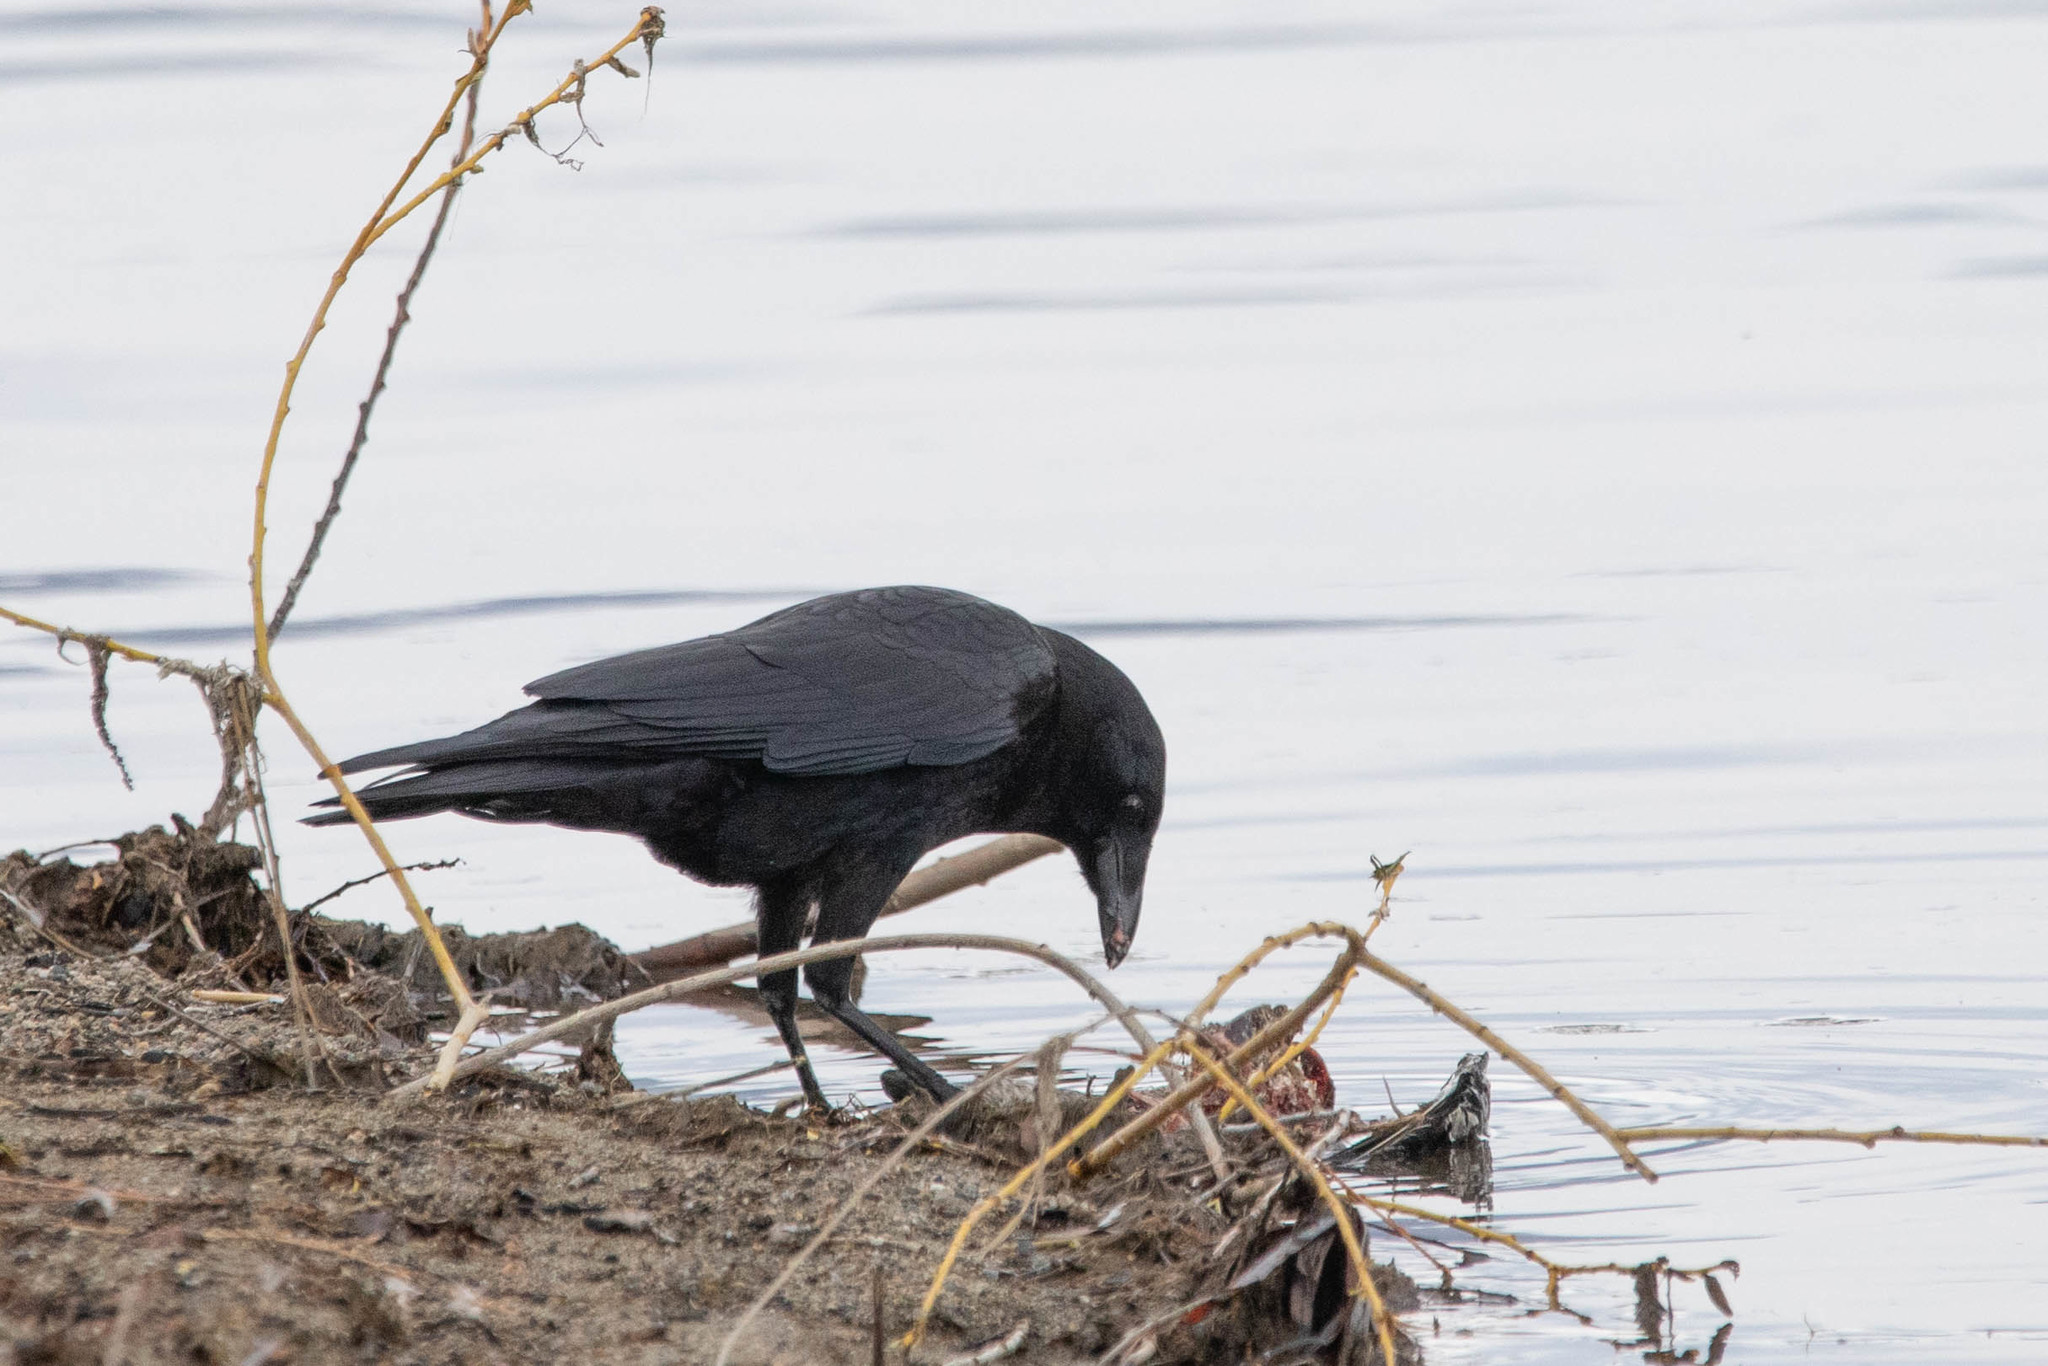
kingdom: Animalia
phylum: Chordata
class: Aves
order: Passeriformes
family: Corvidae
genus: Corvus
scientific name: Corvus brachyrhynchos
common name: American crow
